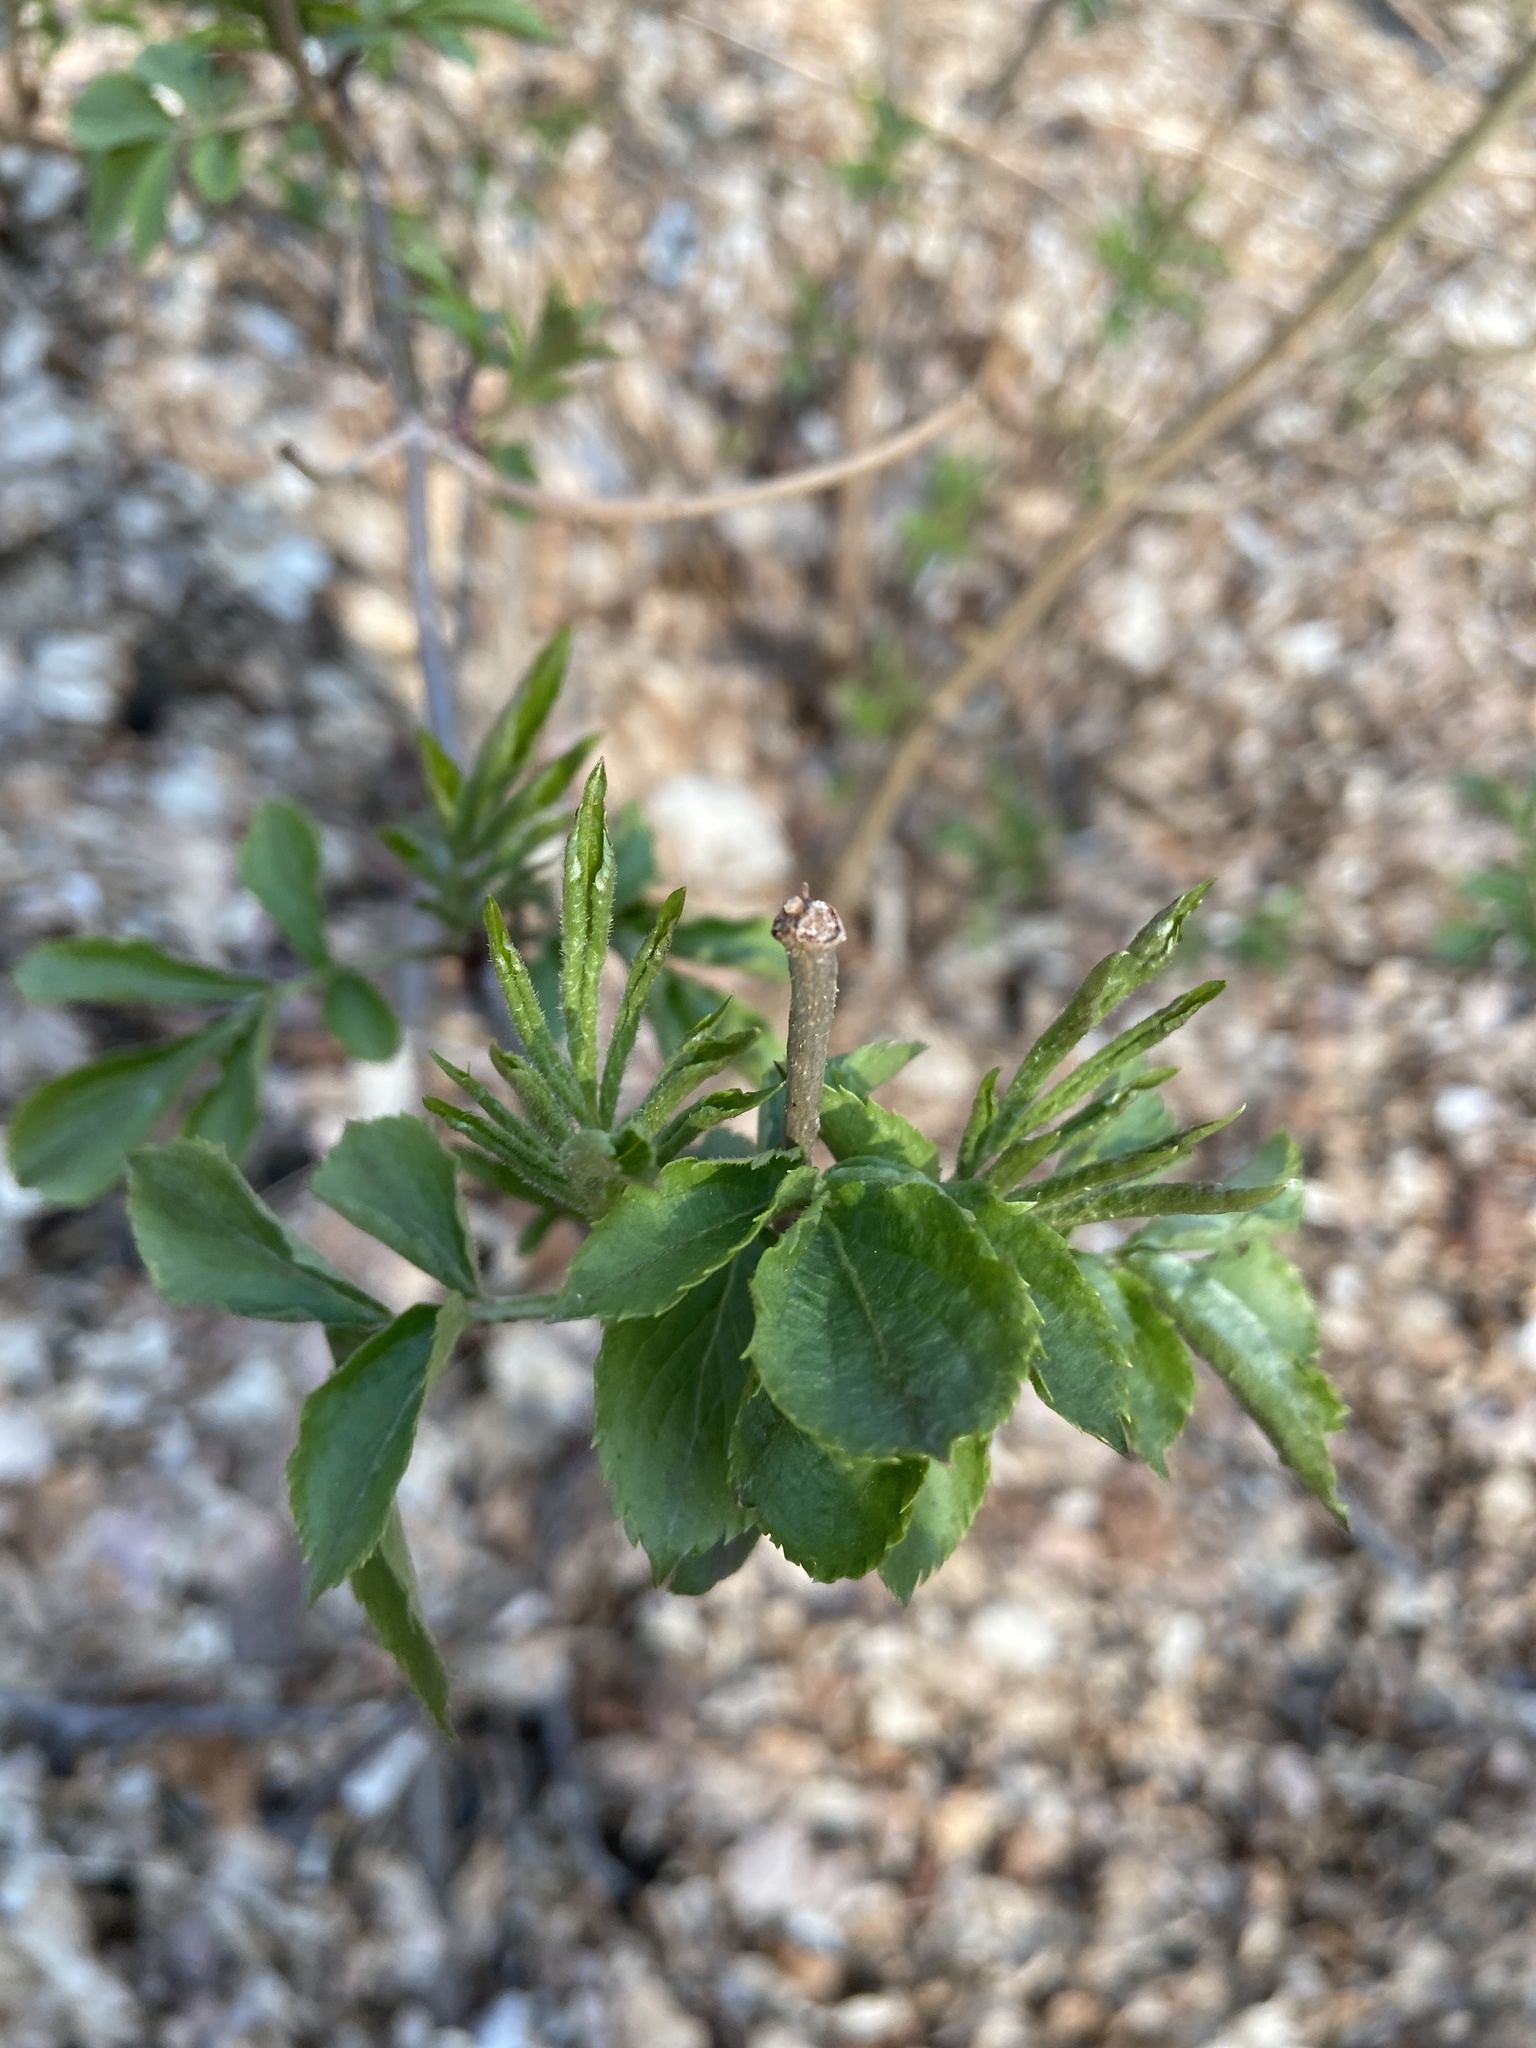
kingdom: Plantae
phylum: Tracheophyta
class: Magnoliopsida
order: Dipsacales
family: Viburnaceae
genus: Sambucus
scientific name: Sambucus nigra
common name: Elder
